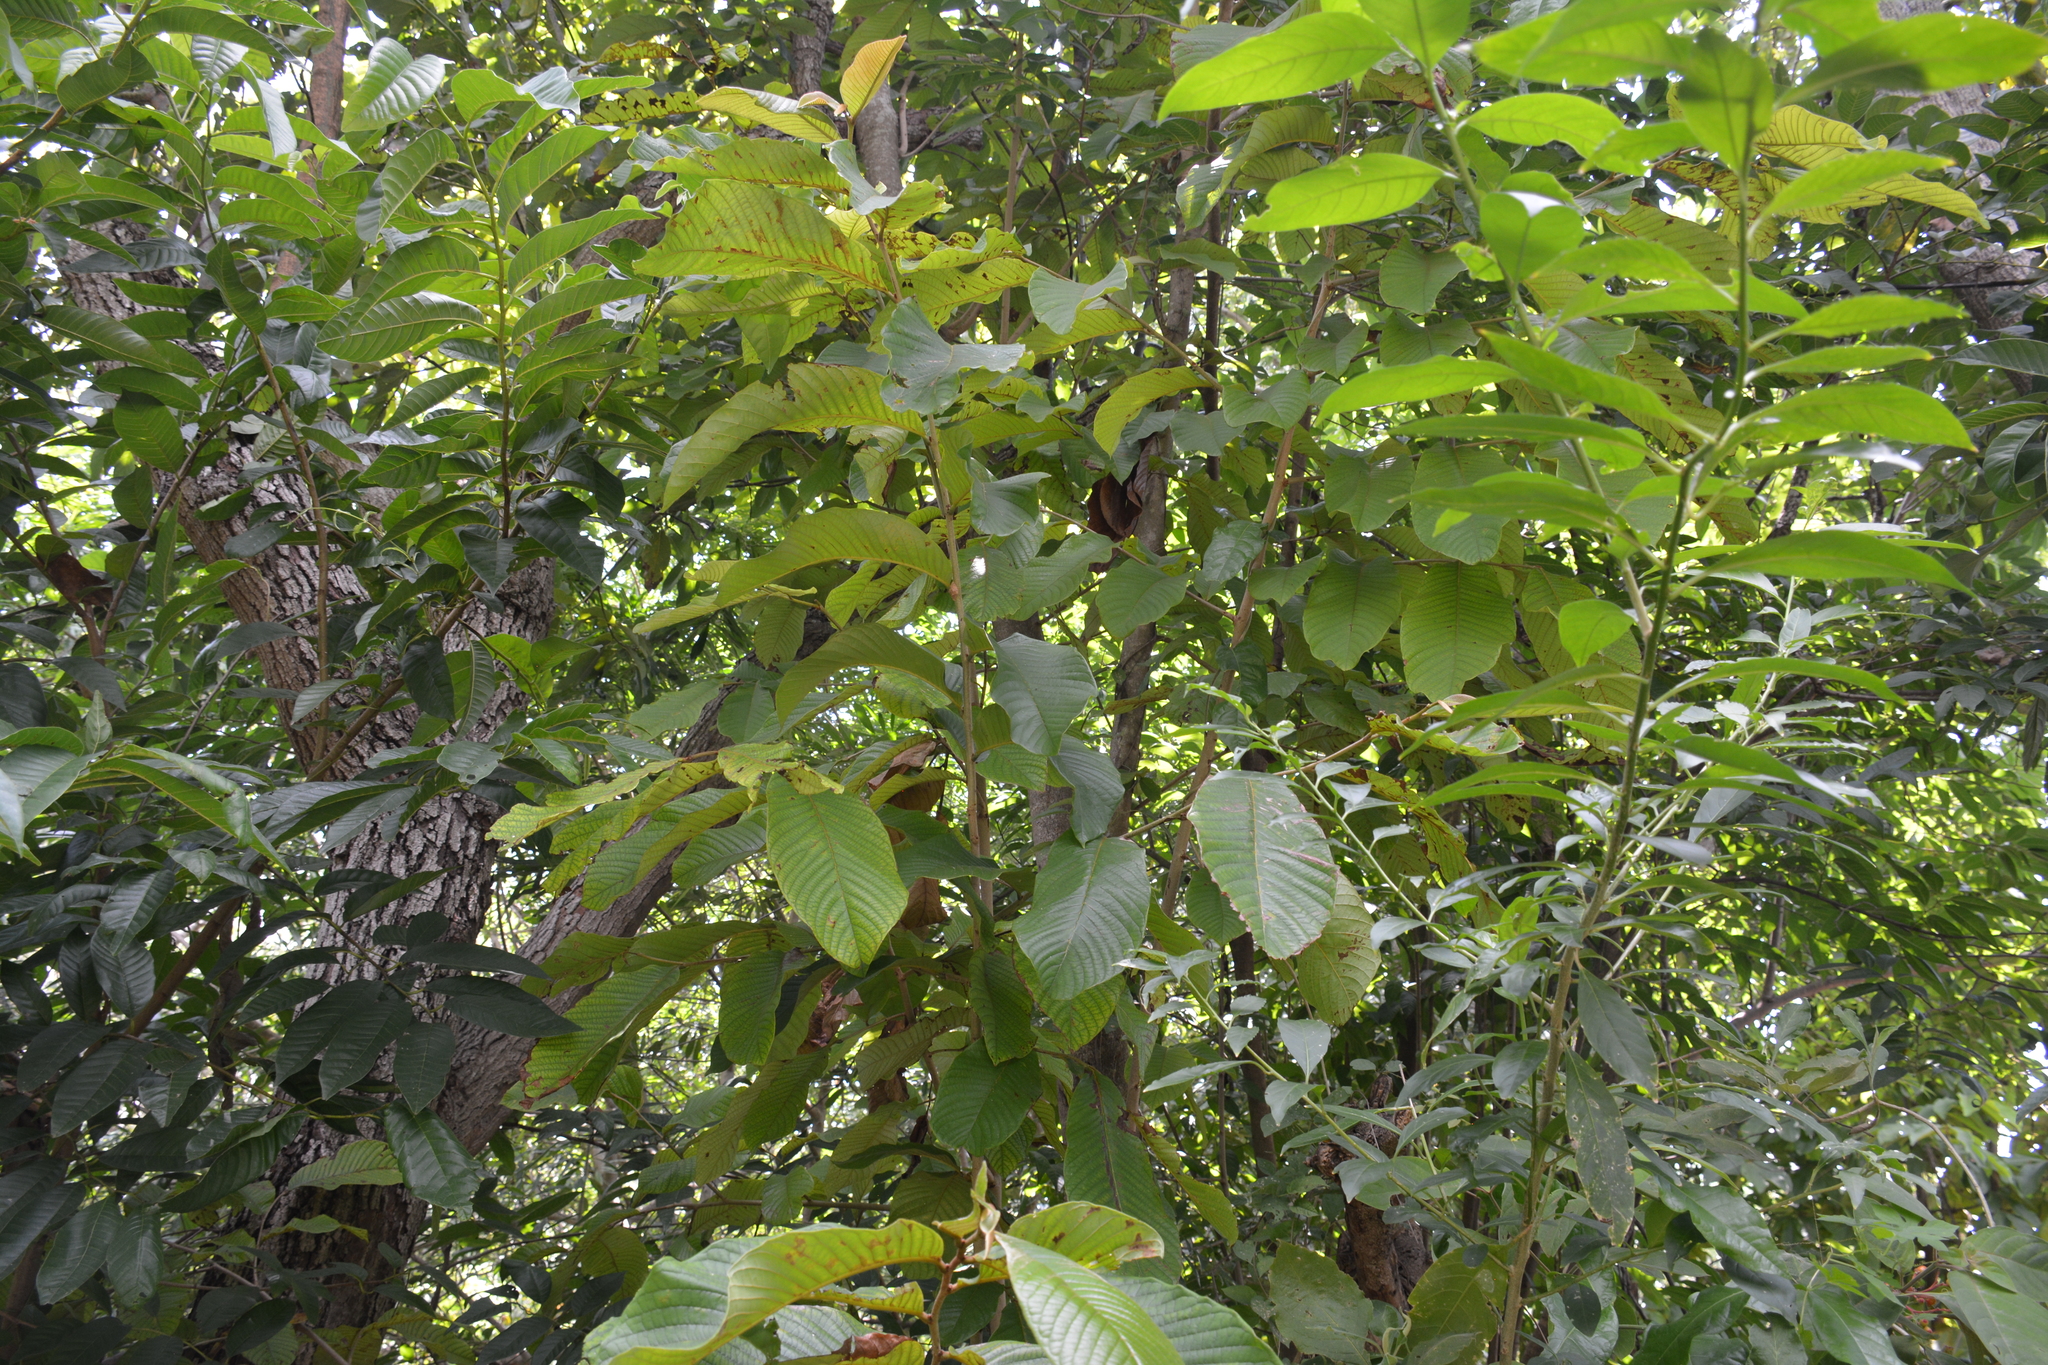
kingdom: Plantae
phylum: Tracheophyta
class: Magnoliopsida
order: Magnoliales
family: Annonaceae
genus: Annona
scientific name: Annona purpurea
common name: Negrohead
